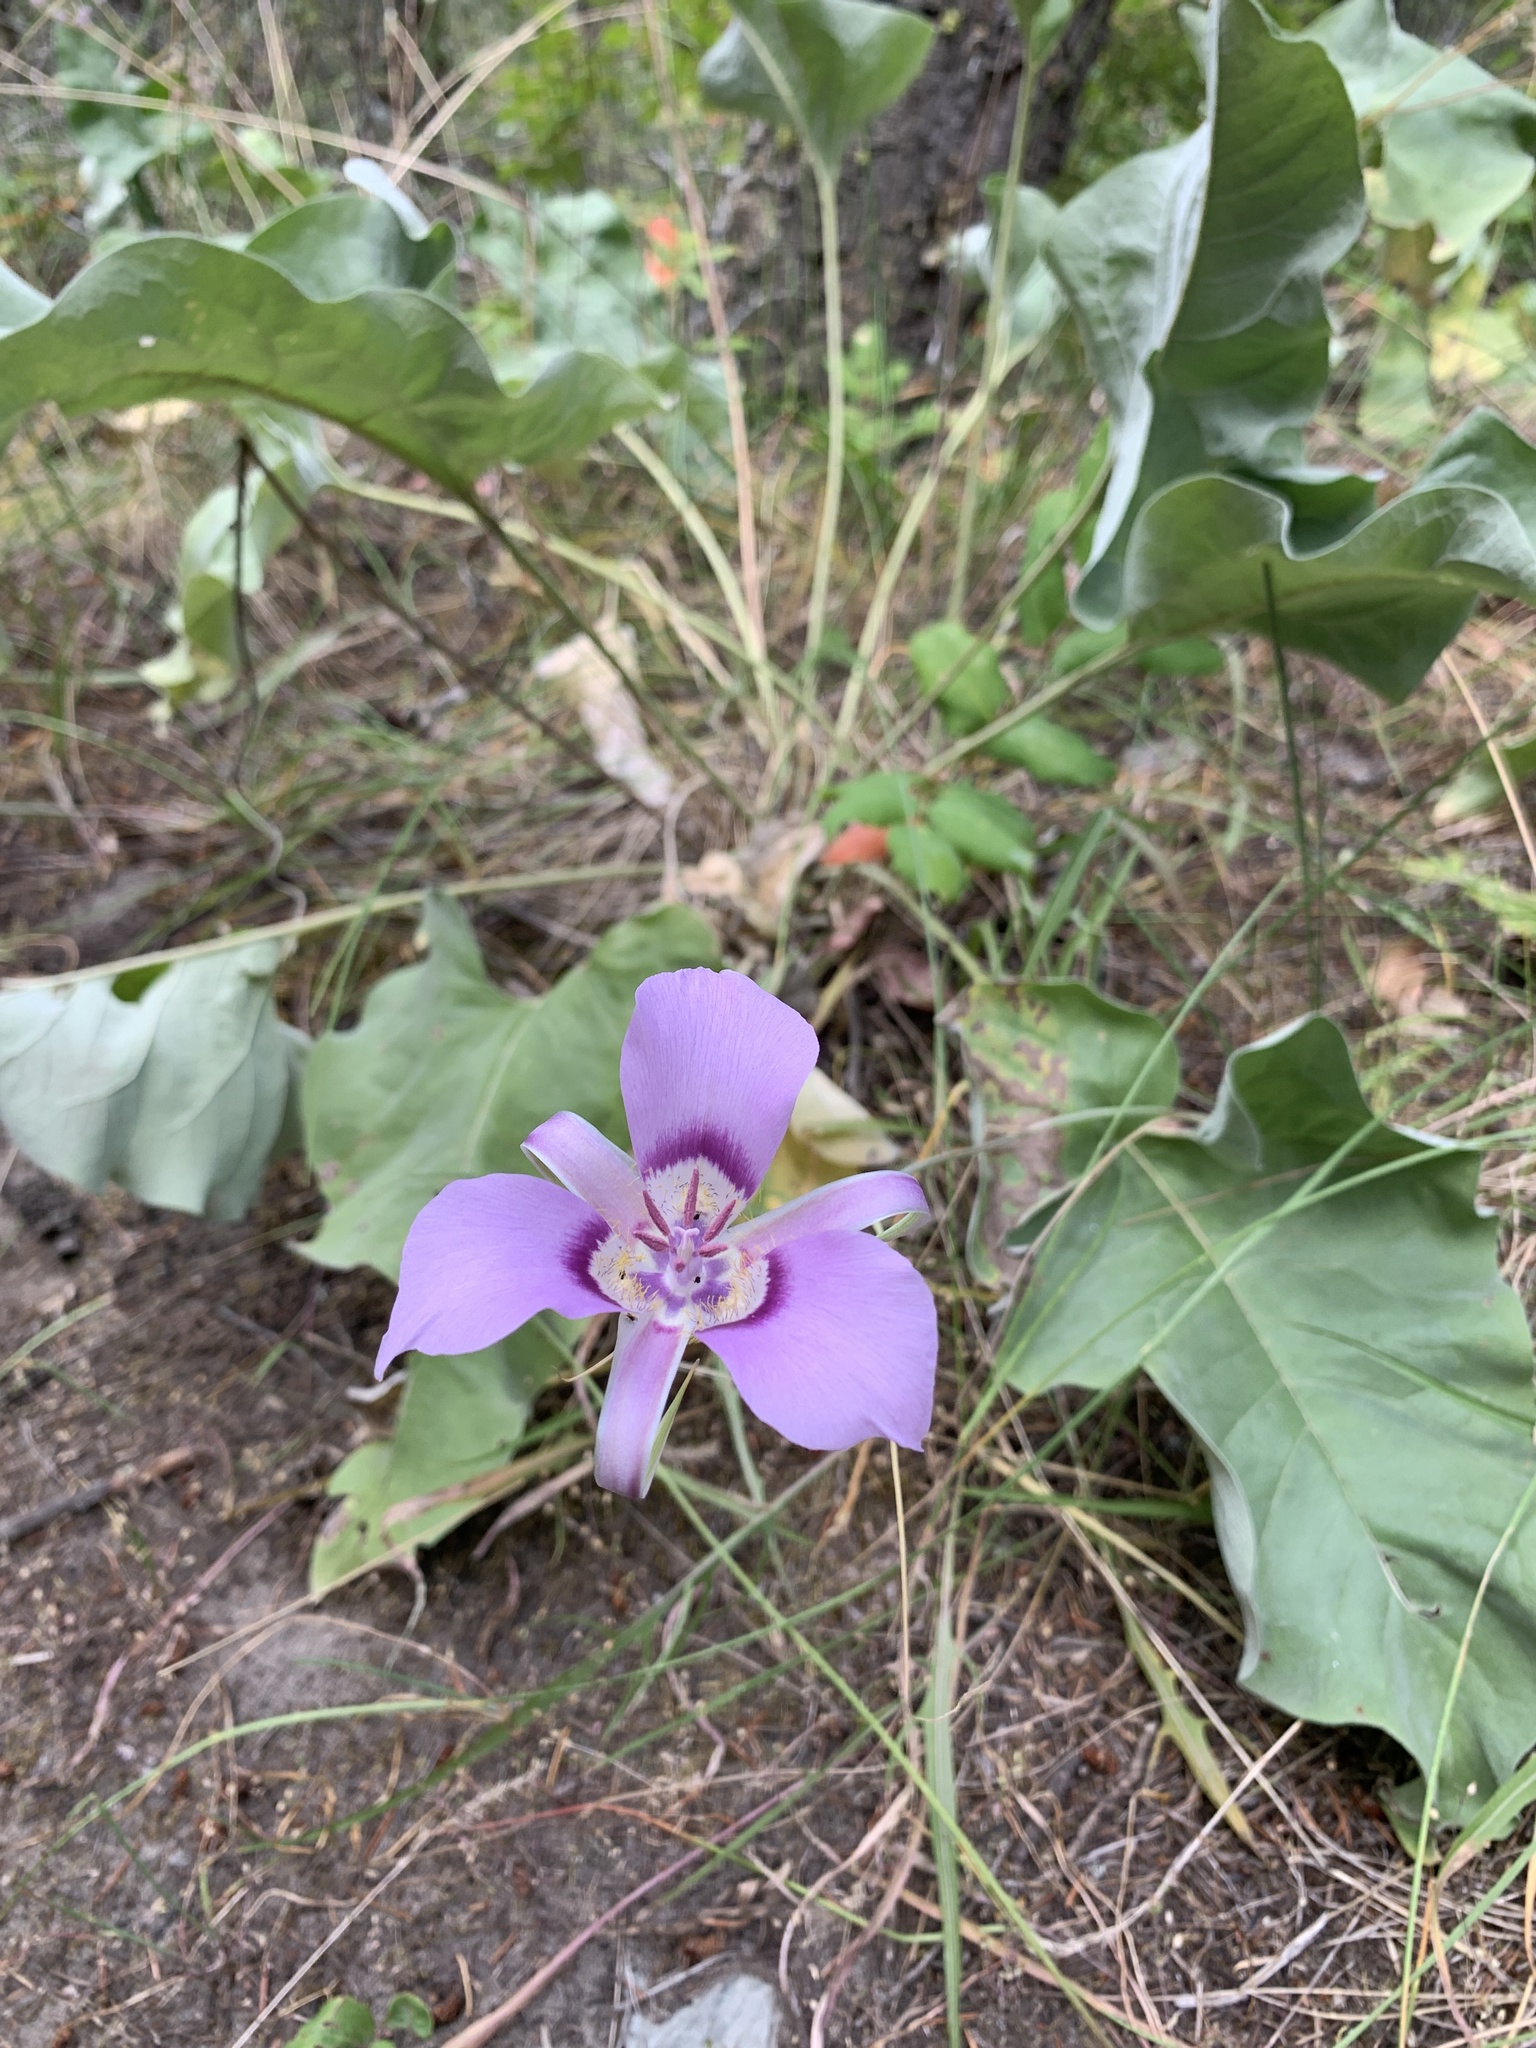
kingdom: Plantae
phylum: Tracheophyta
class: Liliopsida
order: Liliales
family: Liliaceae
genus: Calochortus
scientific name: Calochortus macrocarpus
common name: Green-band mariposa lily
